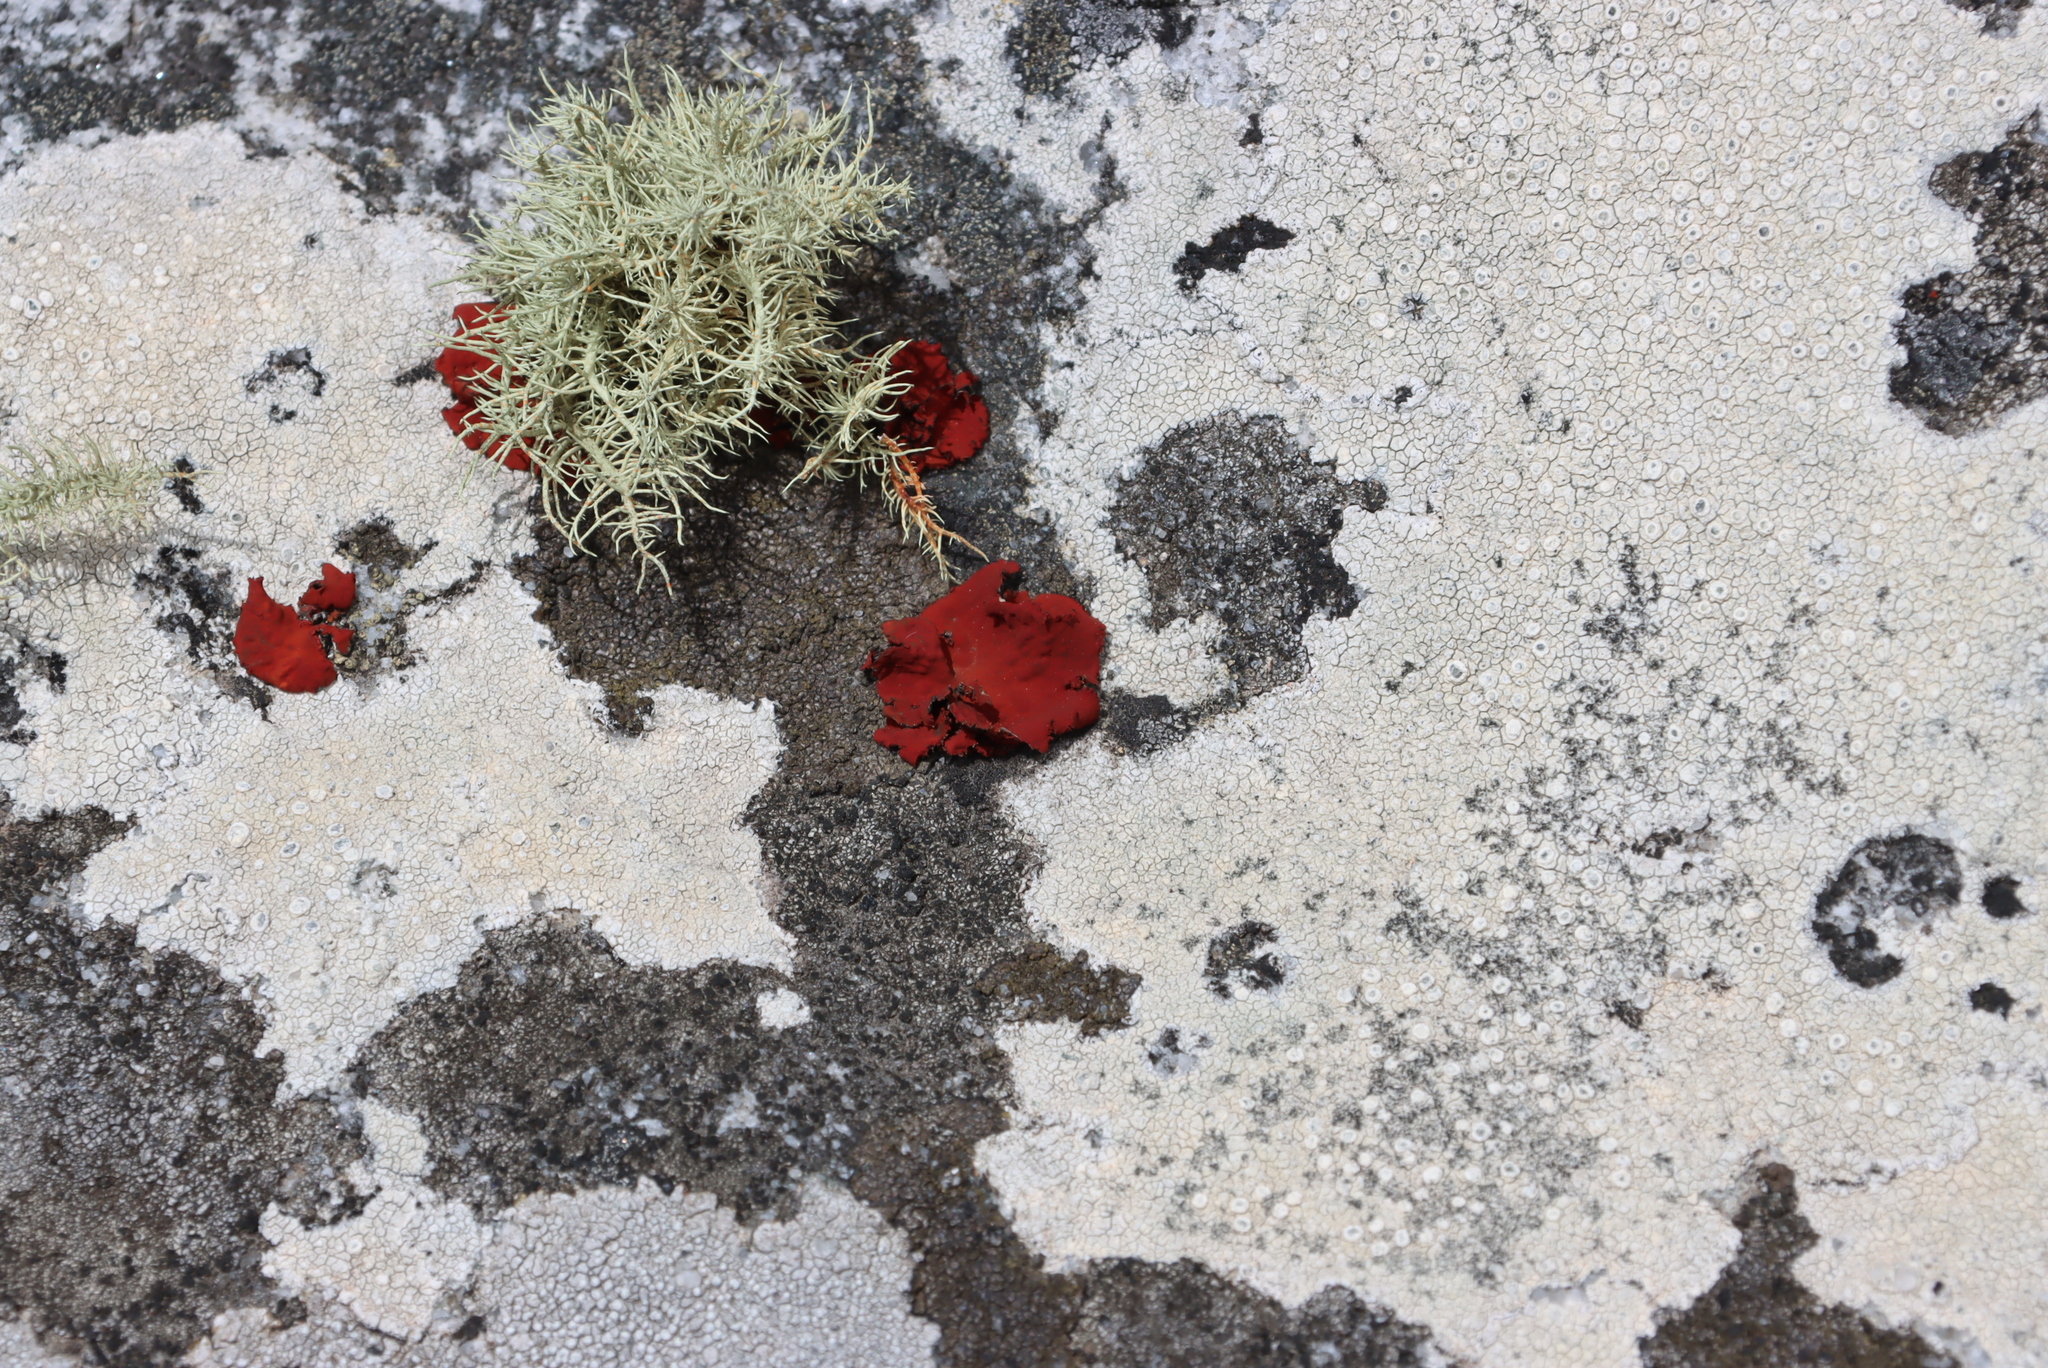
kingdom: Fungi
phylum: Ascomycota
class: Lecanoromycetes
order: Umbilicariales
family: Umbilicariaceae
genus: Lasallia
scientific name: Lasallia rubiginosa
